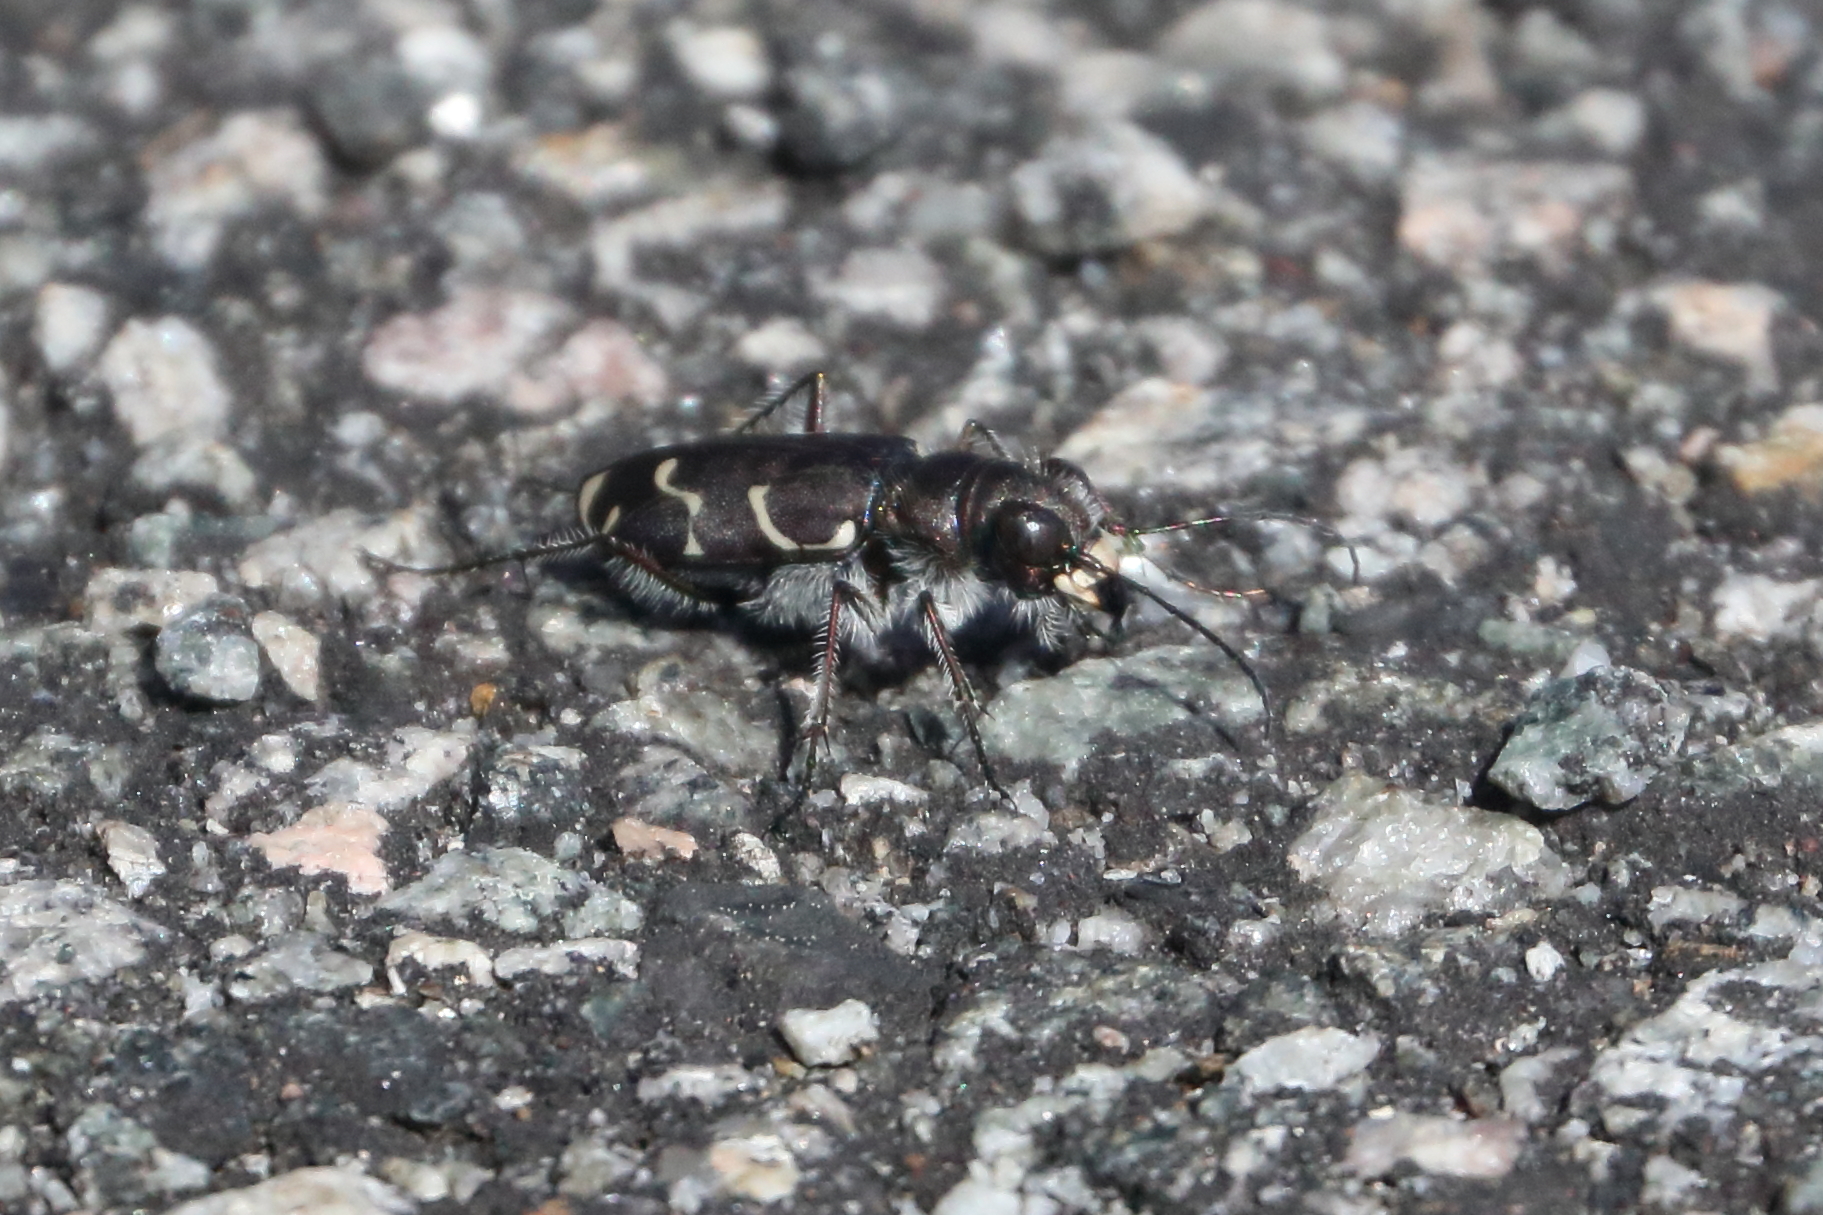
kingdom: Animalia
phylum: Arthropoda
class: Insecta
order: Coleoptera
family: Carabidae
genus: Cicindela
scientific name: Cicindela tranquebarica
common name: Oblique-lined tiger beetle
